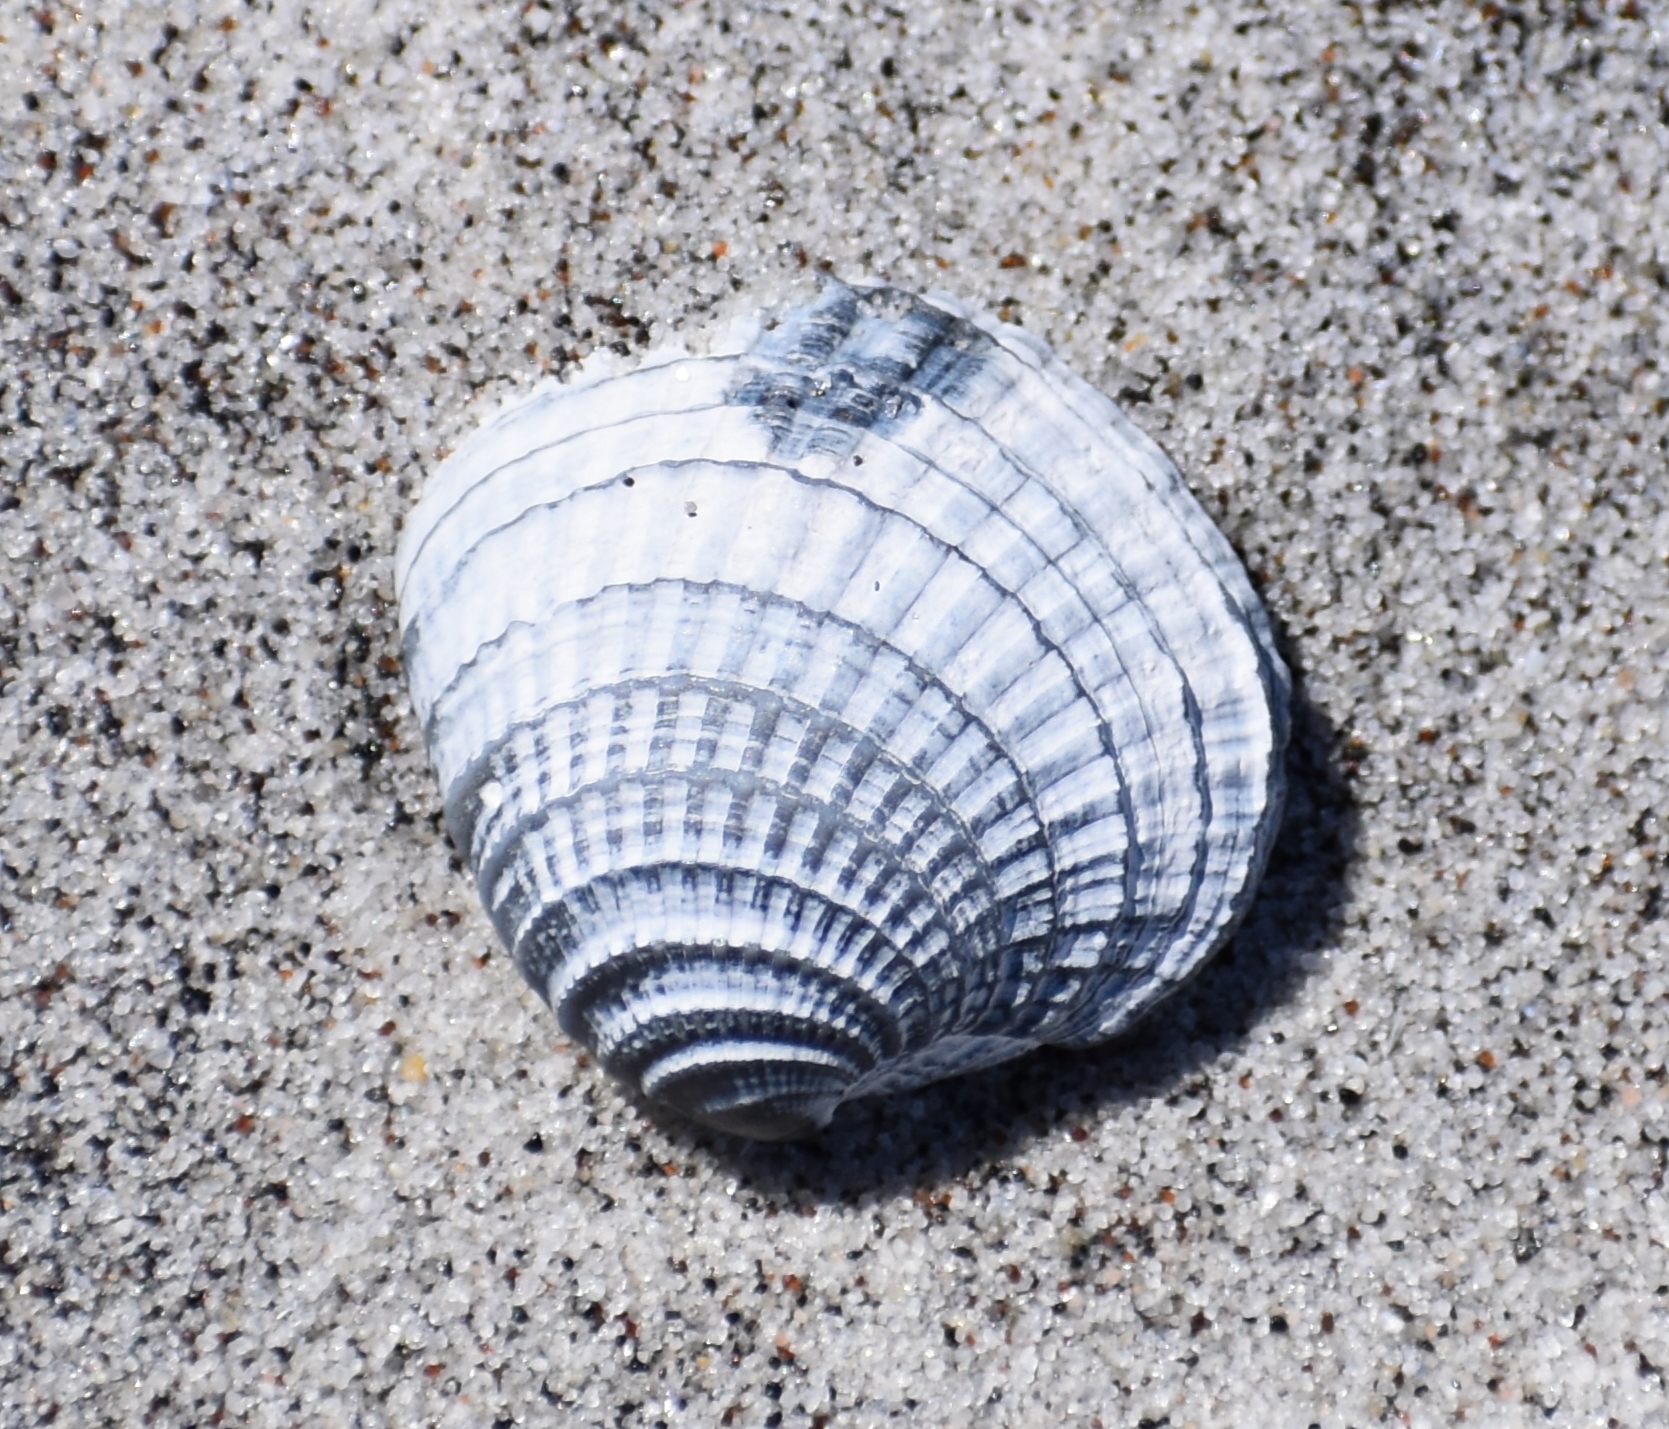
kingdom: Animalia
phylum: Mollusca
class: Bivalvia
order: Venerida
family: Veneridae
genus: Chione
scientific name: Chione elevata
